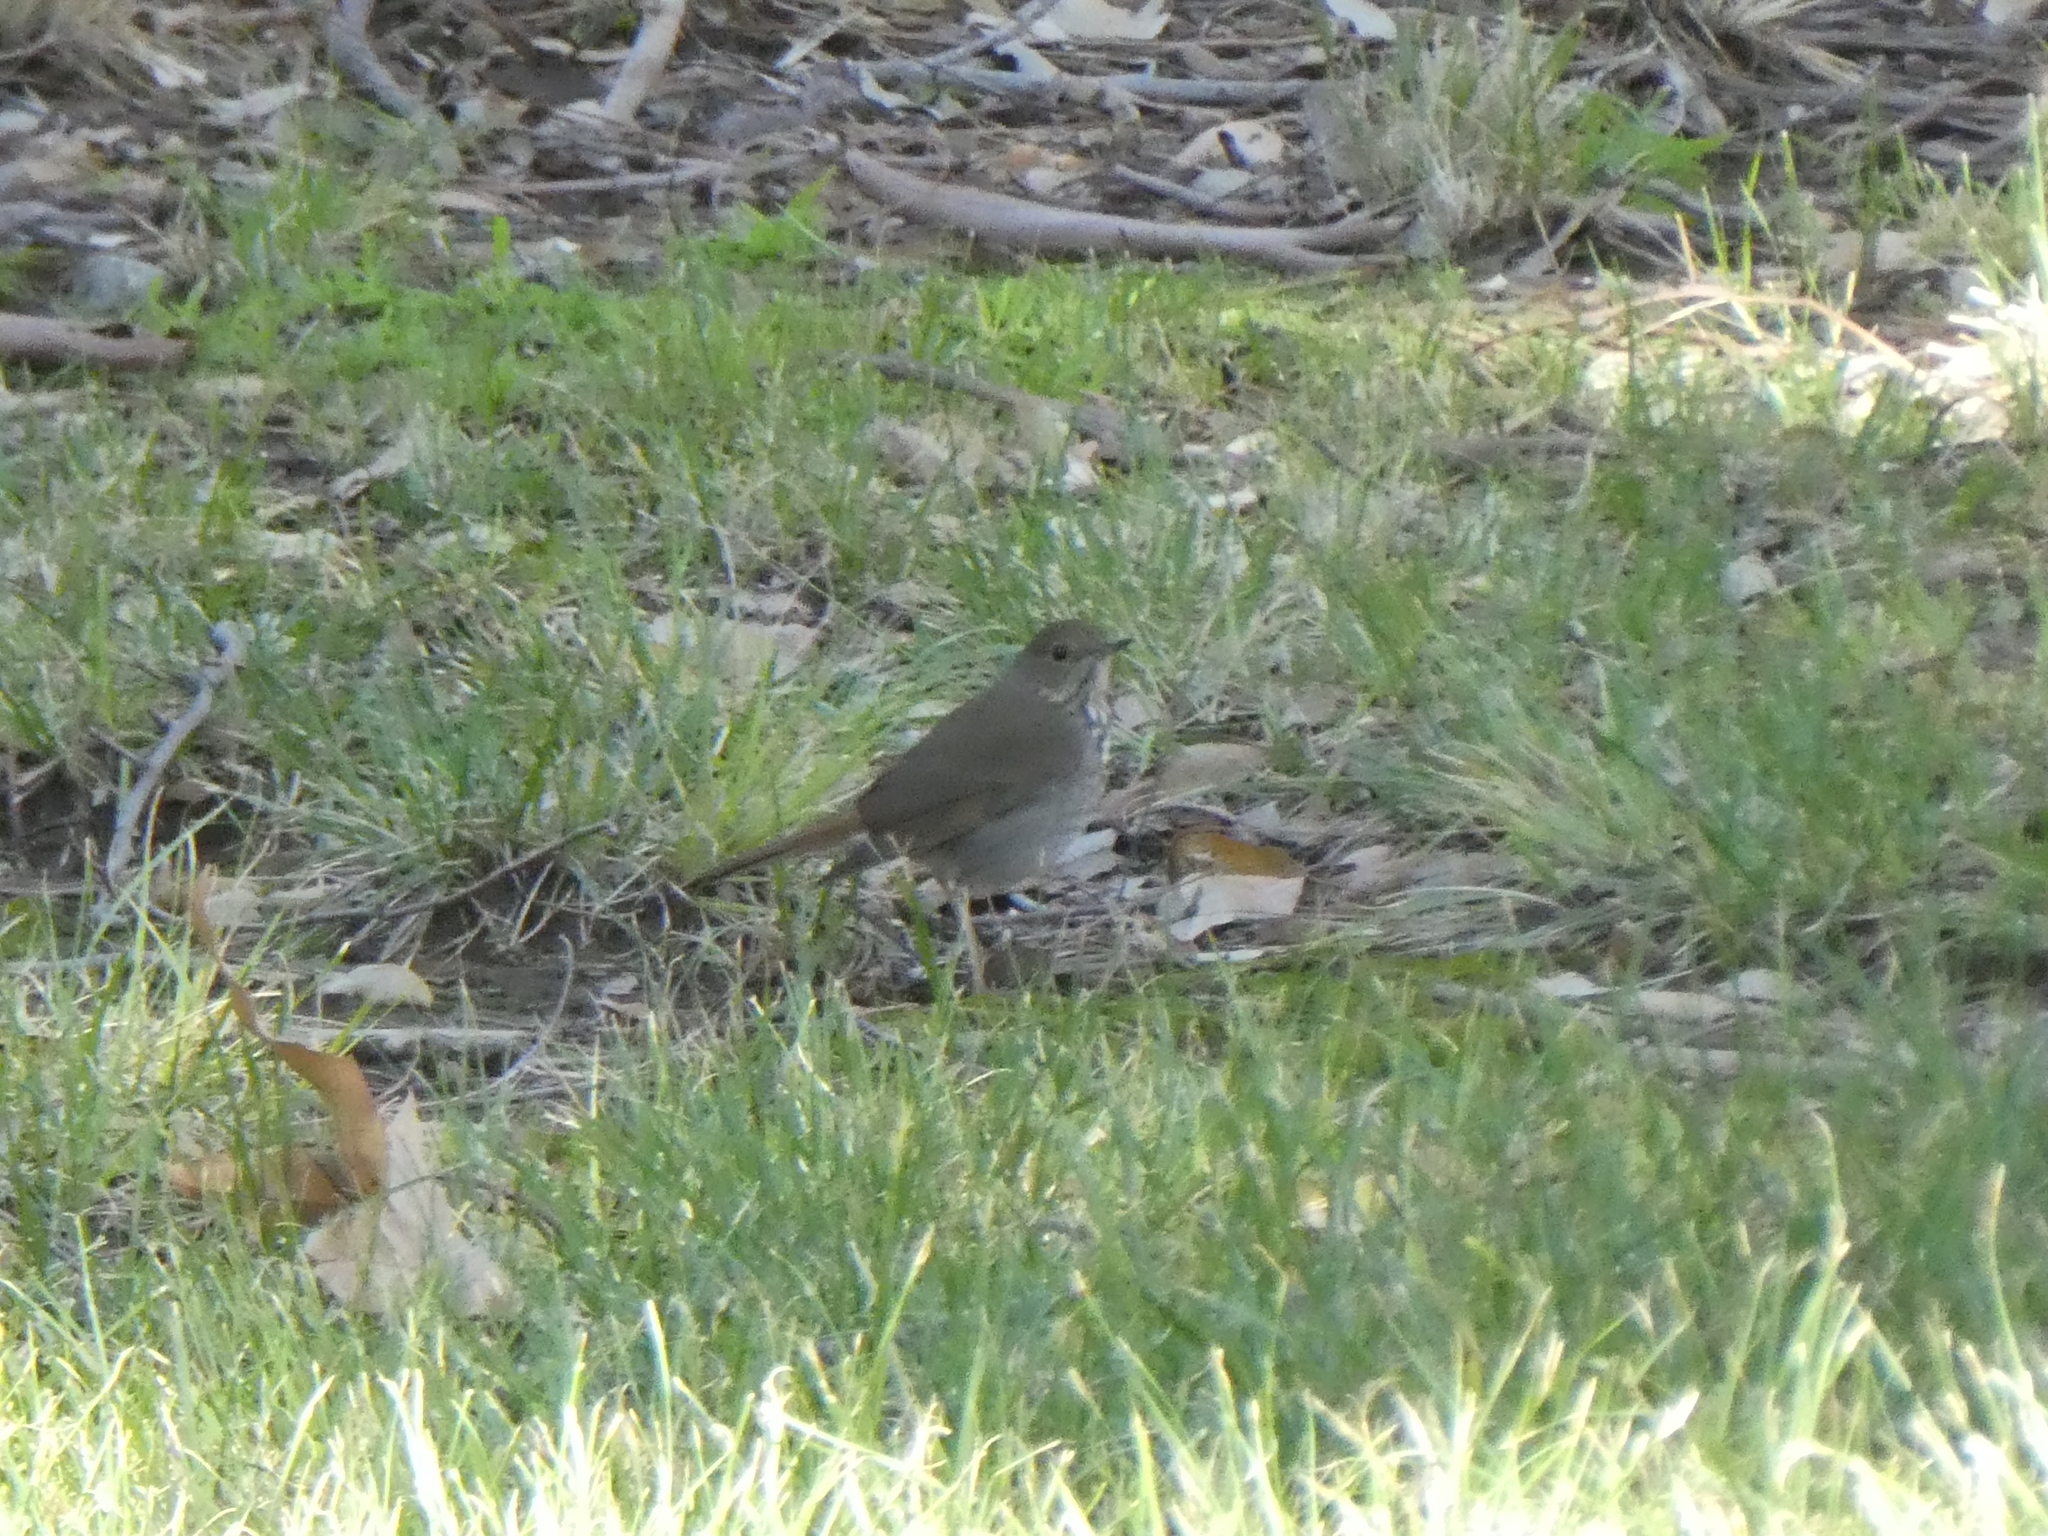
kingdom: Animalia
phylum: Chordata
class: Aves
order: Passeriformes
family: Turdidae
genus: Catharus
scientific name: Catharus guttatus
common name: Hermit thrush
